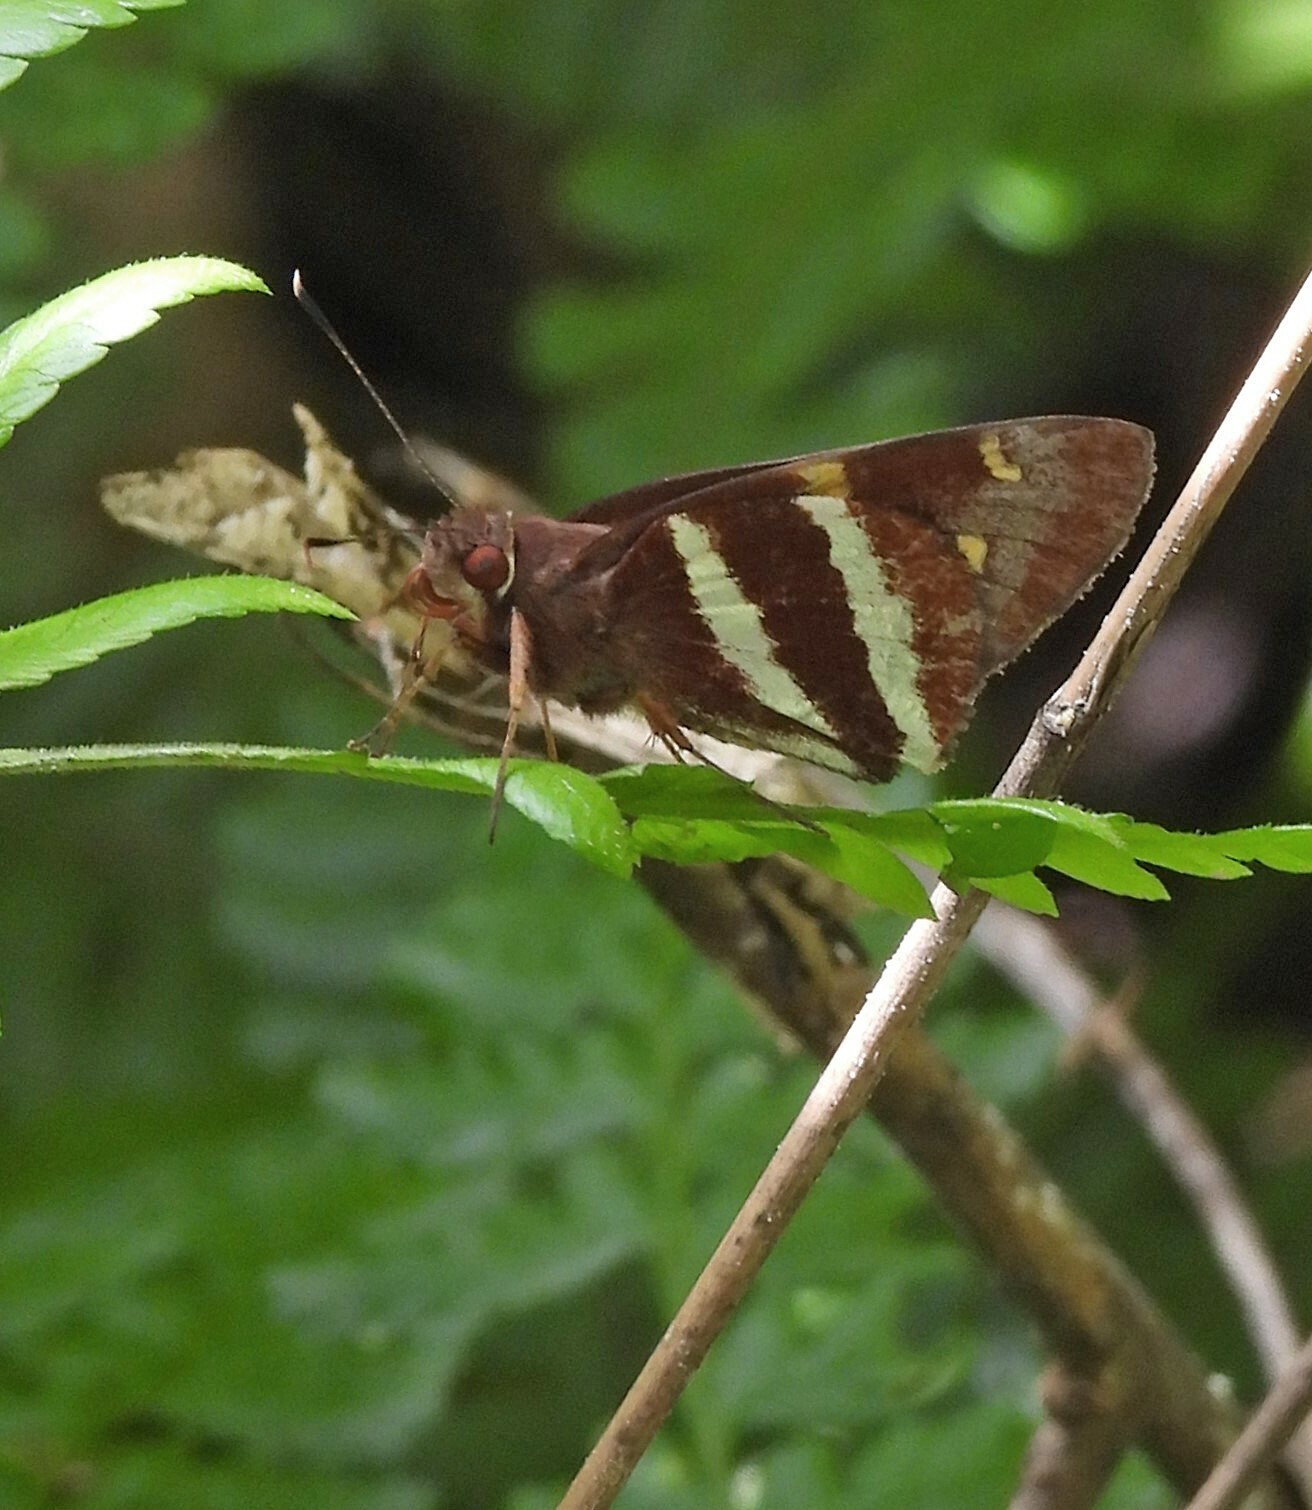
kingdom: Animalia
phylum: Arthropoda
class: Insecta
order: Lepidoptera
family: Hesperiidae
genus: Lycas
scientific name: Lycas argentea
